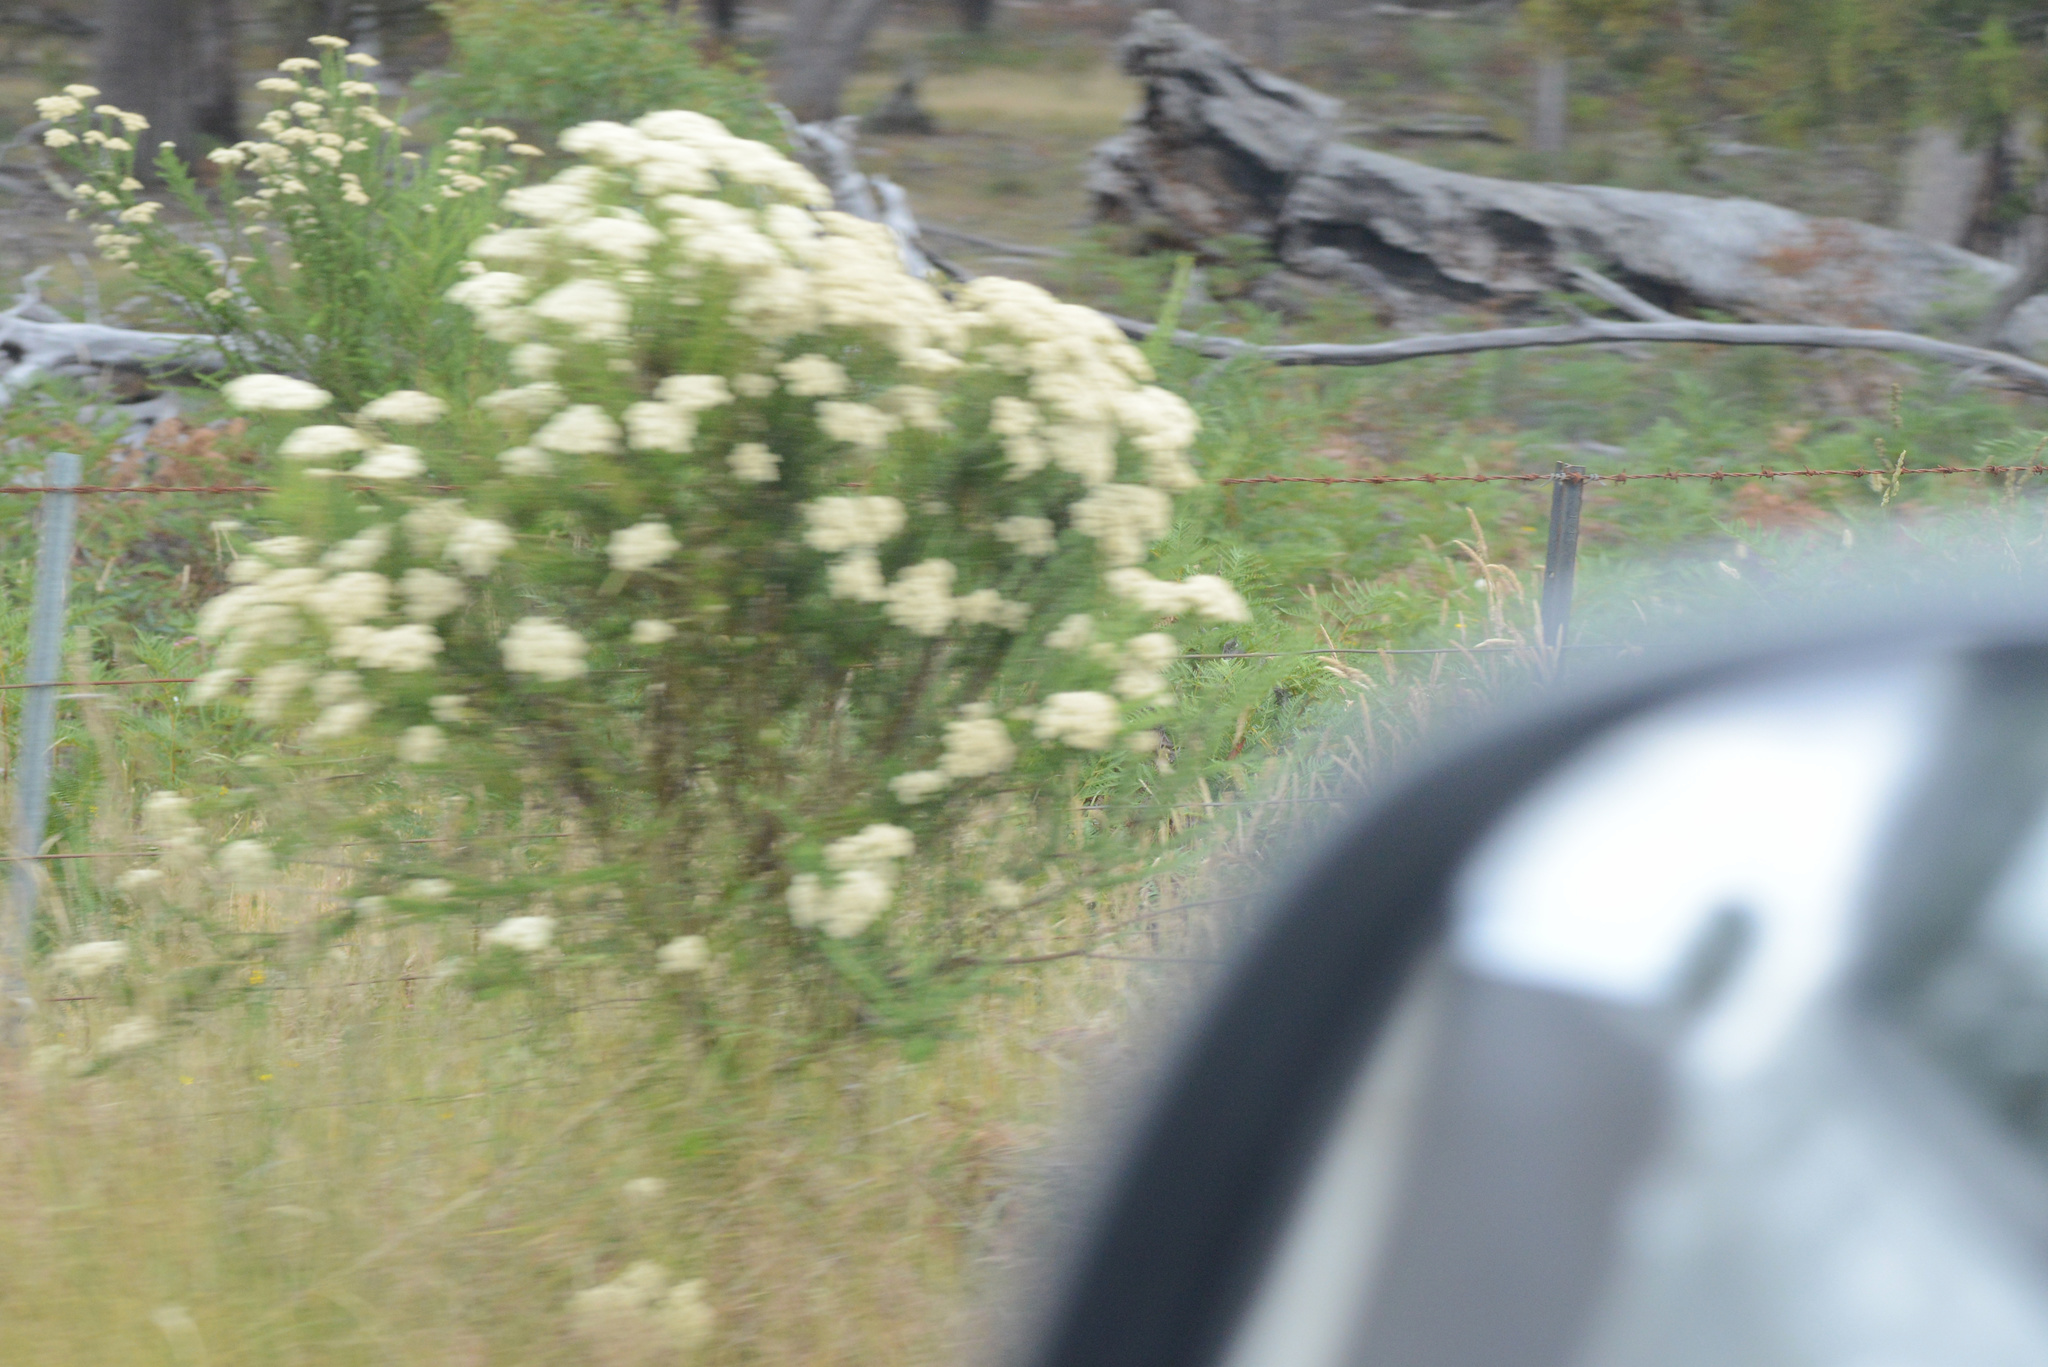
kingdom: Plantae
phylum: Tracheophyta
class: Magnoliopsida
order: Asterales
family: Asteraceae
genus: Cassinia
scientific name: Cassinia aculeata
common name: Australian tauhinu
